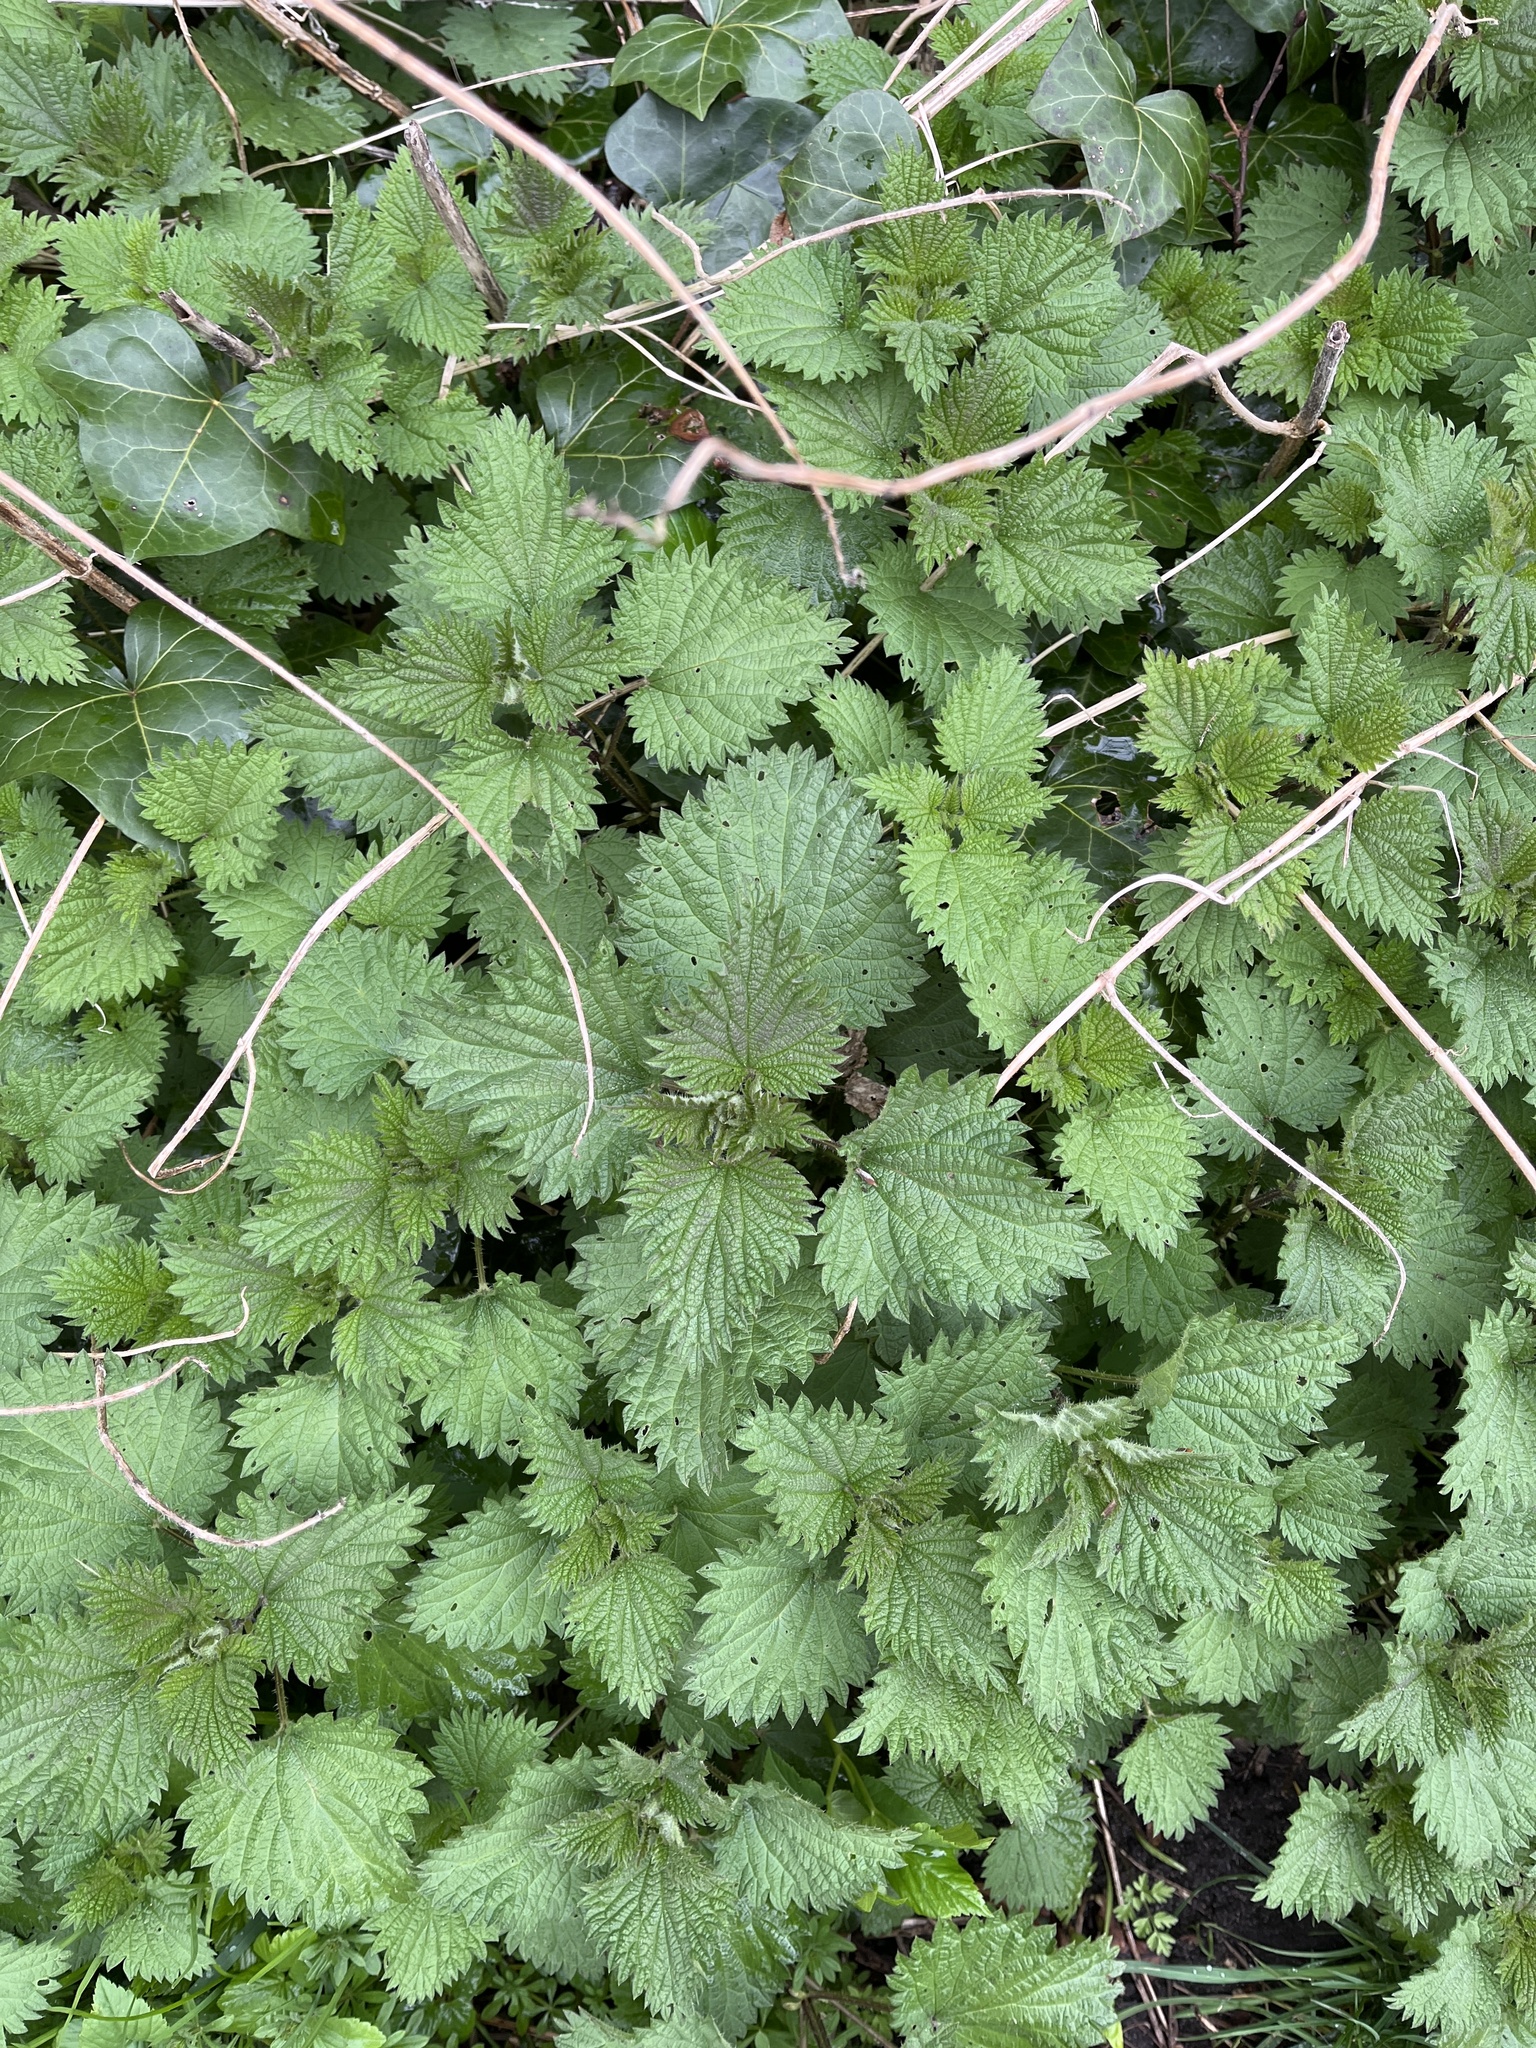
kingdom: Plantae
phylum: Tracheophyta
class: Magnoliopsida
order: Rosales
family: Urticaceae
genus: Urtica
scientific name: Urtica dioica
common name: Common nettle
